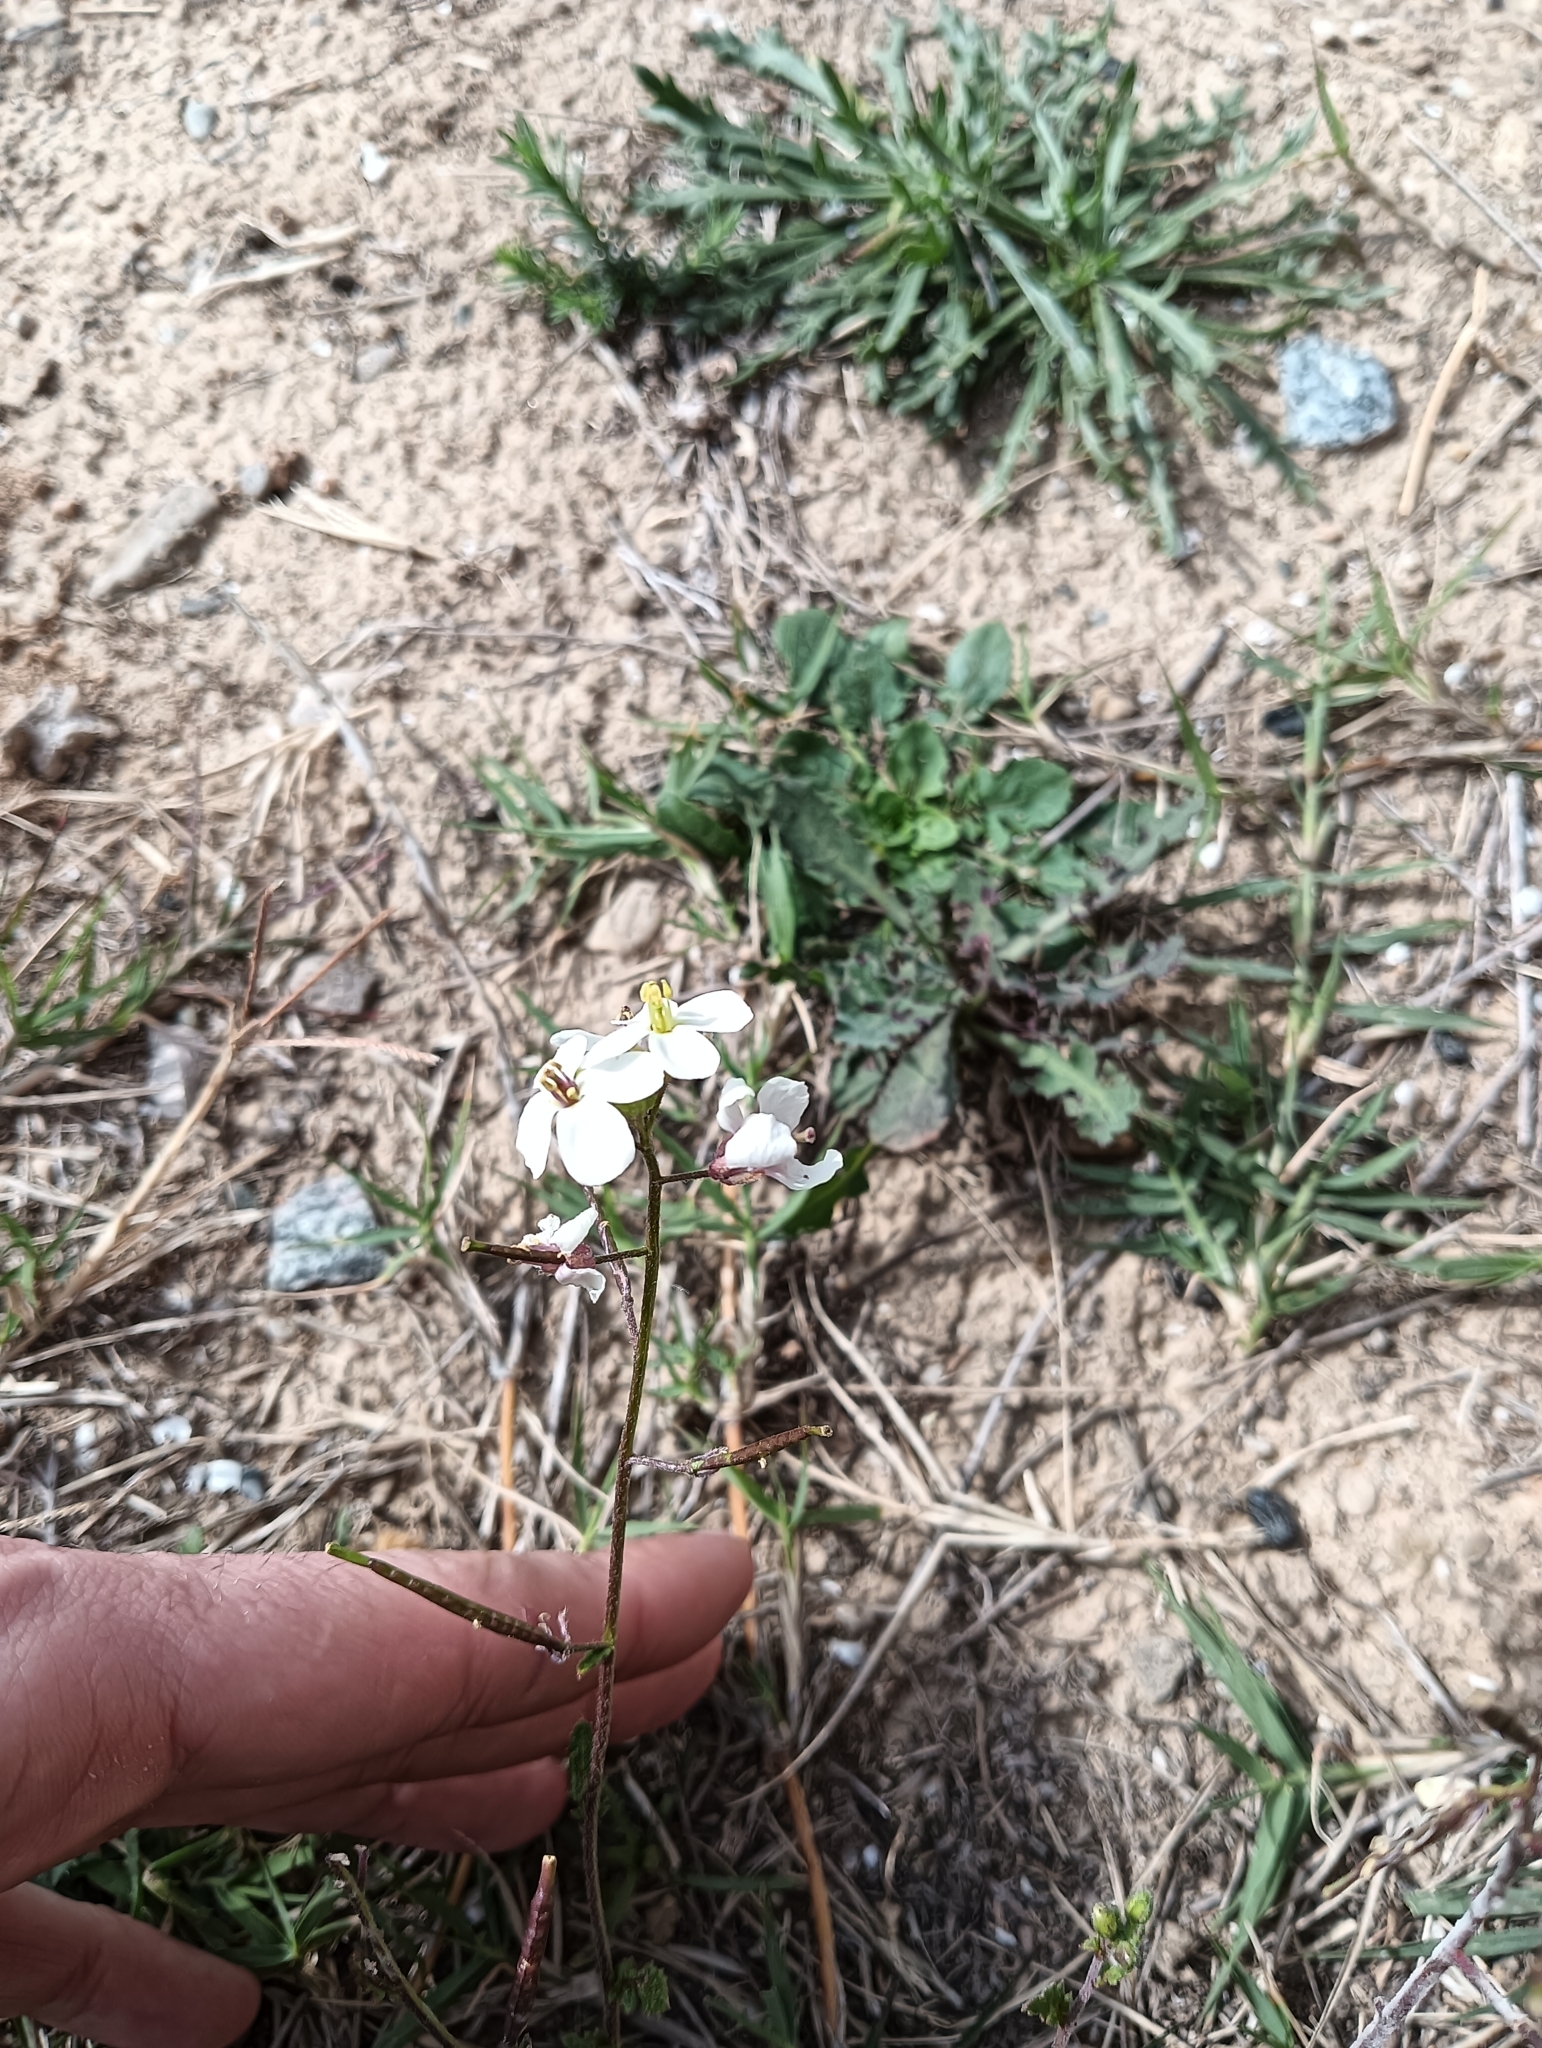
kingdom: Plantae
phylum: Tracheophyta
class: Magnoliopsida
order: Brassicales
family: Brassicaceae
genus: Diplotaxis
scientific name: Diplotaxis erucoides
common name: White rocket
